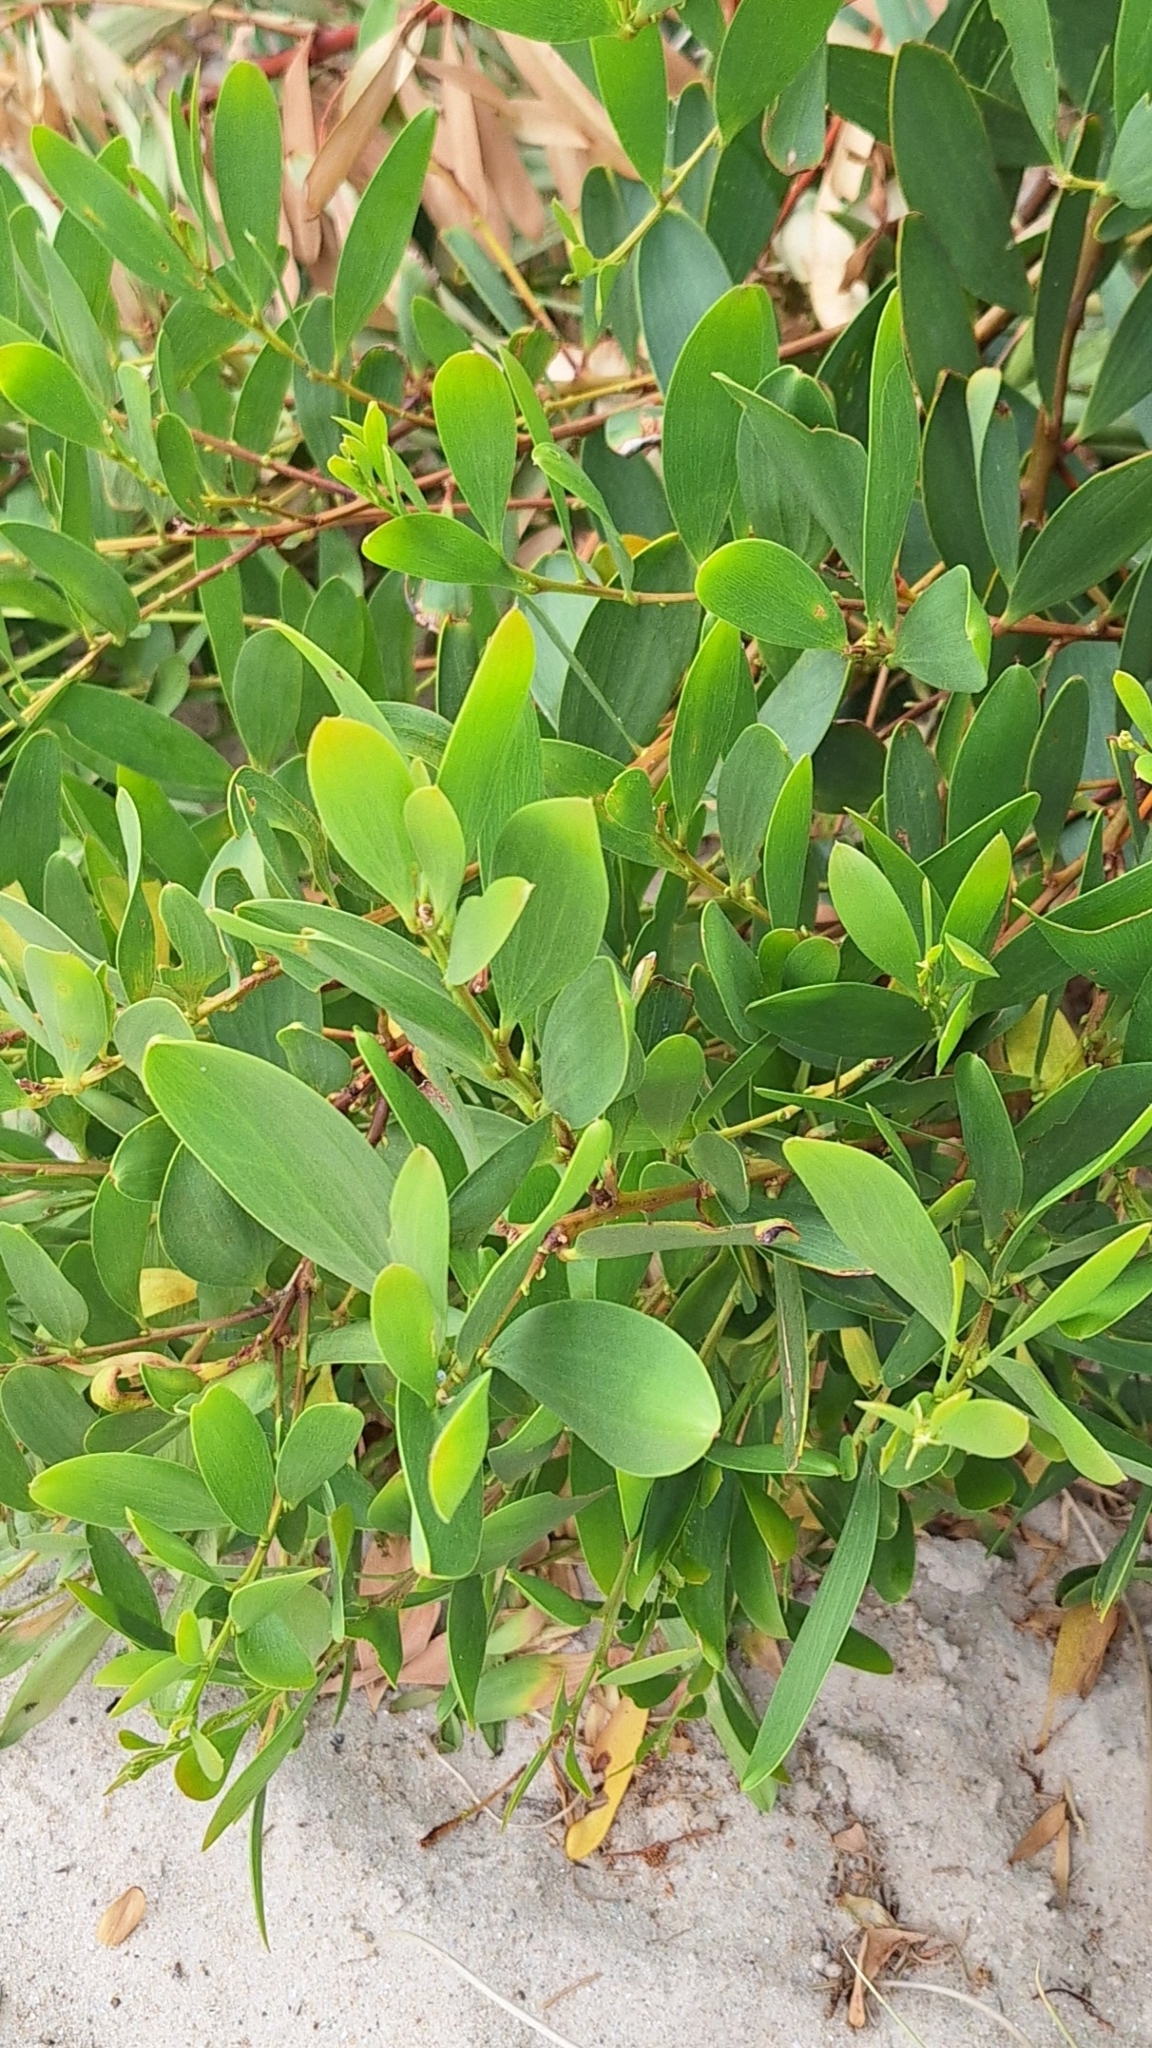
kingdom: Plantae
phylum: Tracheophyta
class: Magnoliopsida
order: Fabales
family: Fabaceae
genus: Acacia
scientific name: Acacia longifolia
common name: Sydney golden wattle
